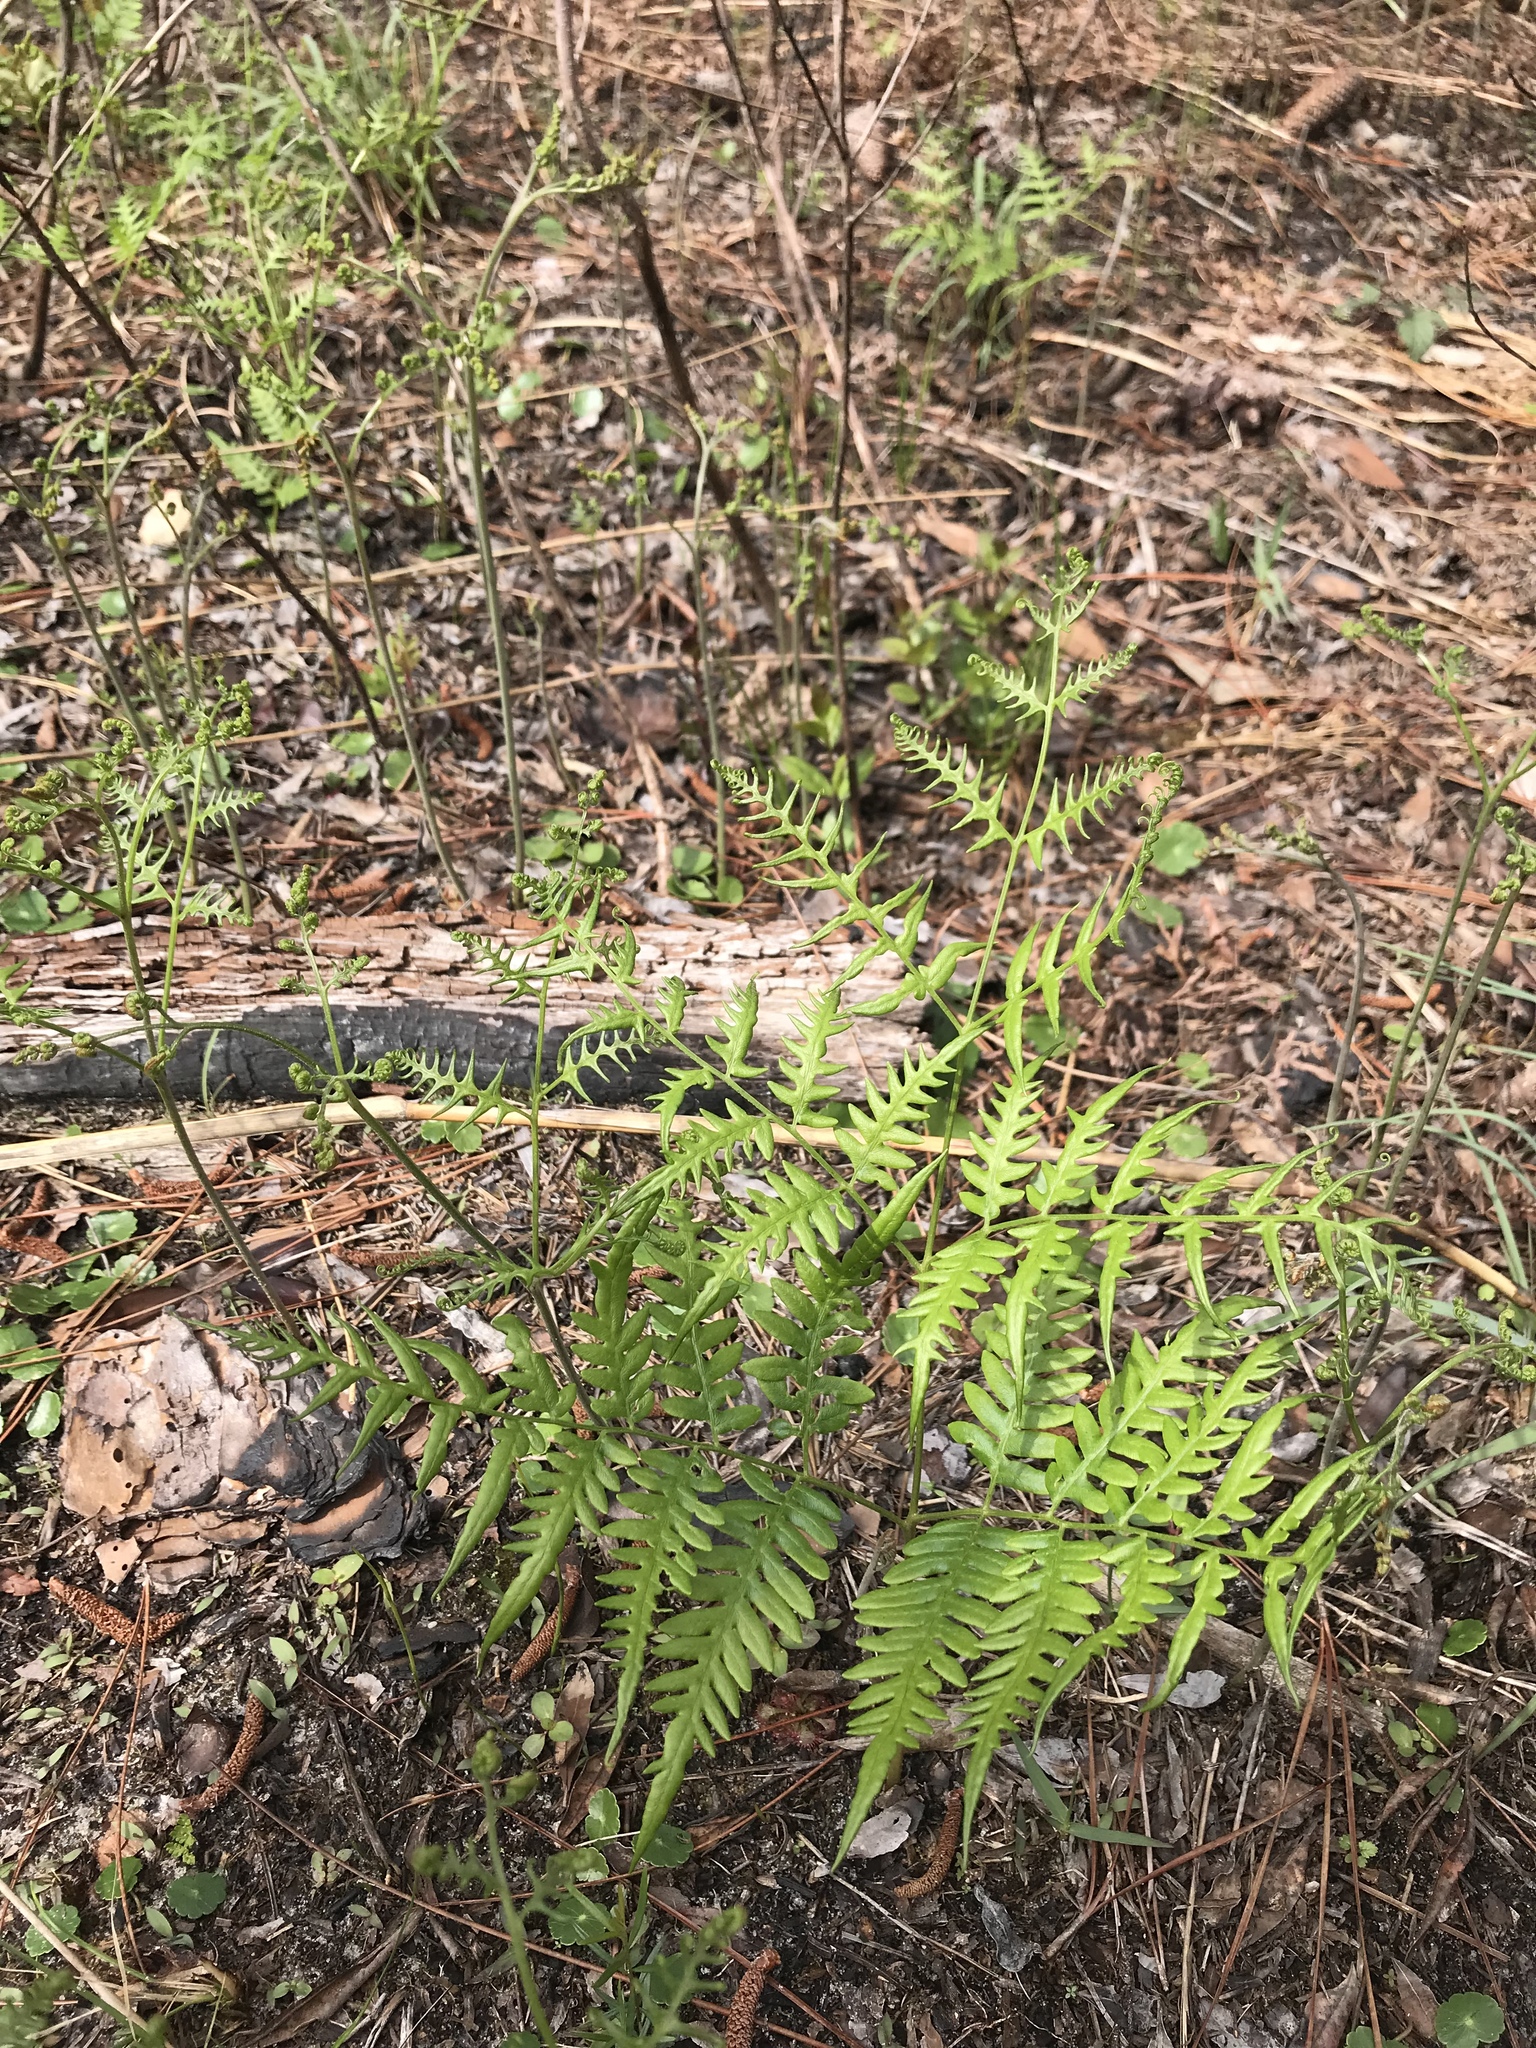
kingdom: Plantae
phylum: Tracheophyta
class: Polypodiopsida
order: Polypodiales
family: Dennstaedtiaceae
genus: Pteridium
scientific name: Pteridium aquilinum
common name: Bracken
